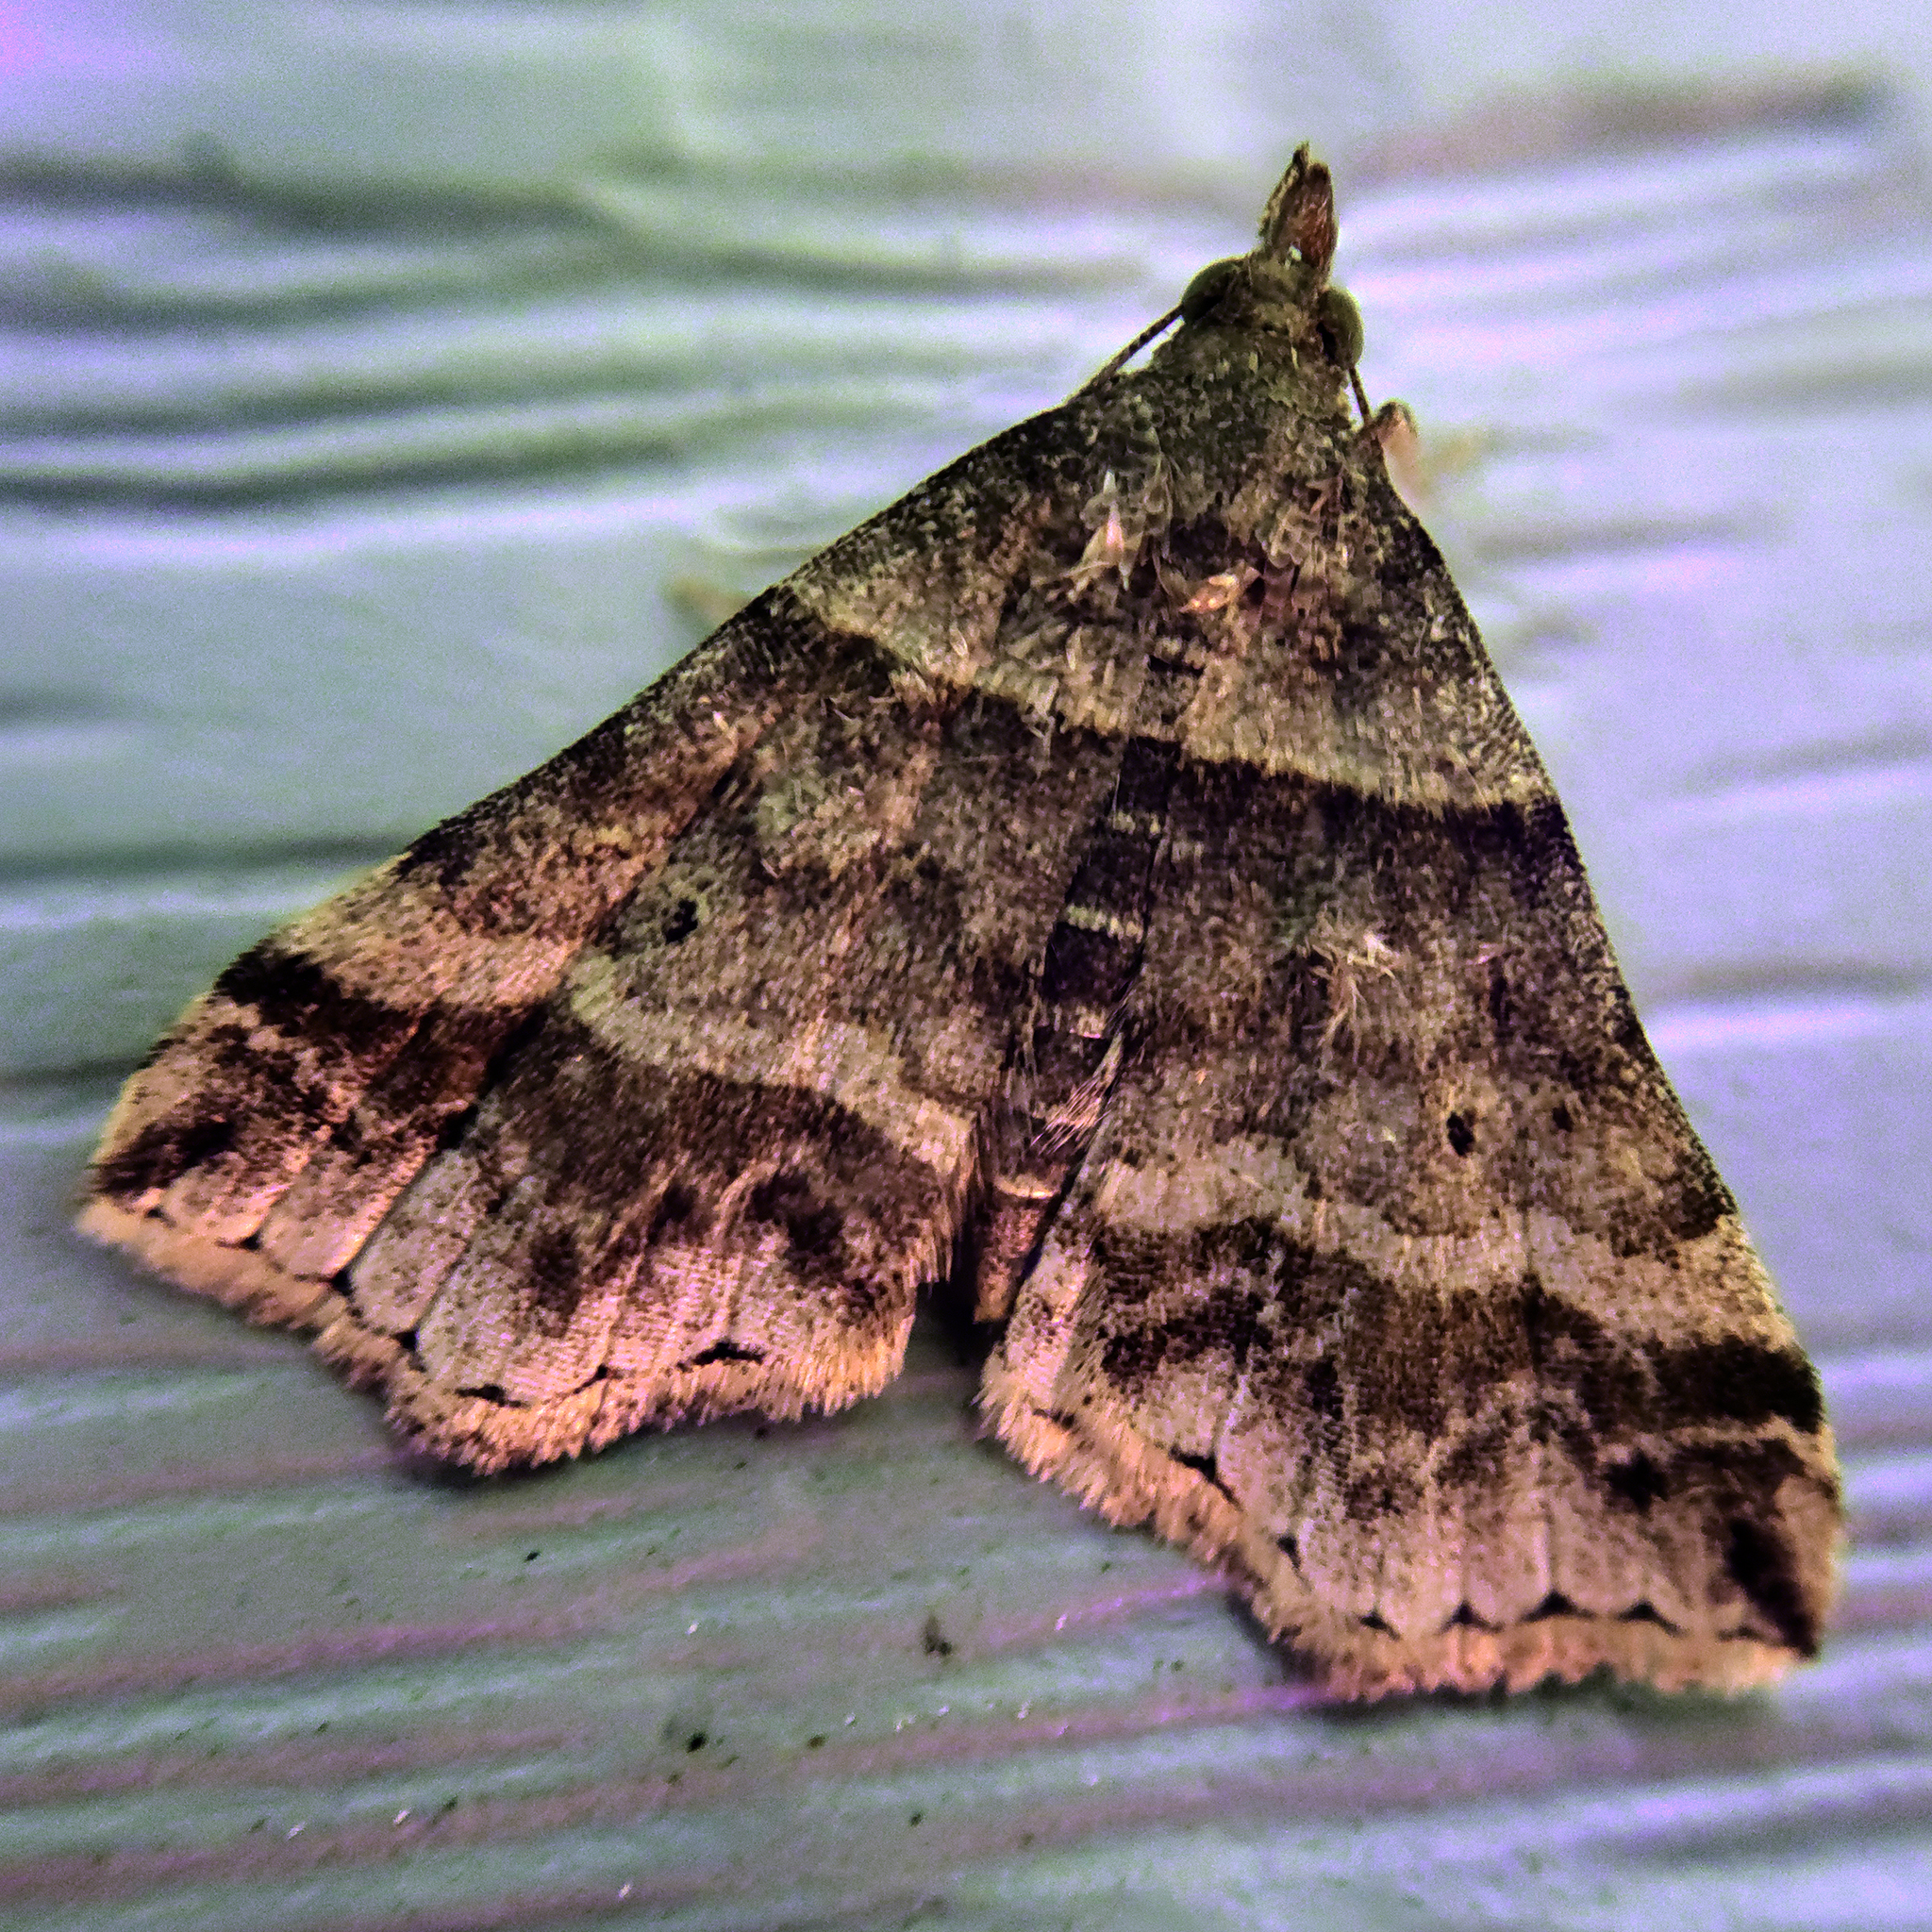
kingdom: Animalia
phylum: Arthropoda
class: Insecta
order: Lepidoptera
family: Erebidae
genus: Phaeolita
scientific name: Phaeolita pyramusalis
